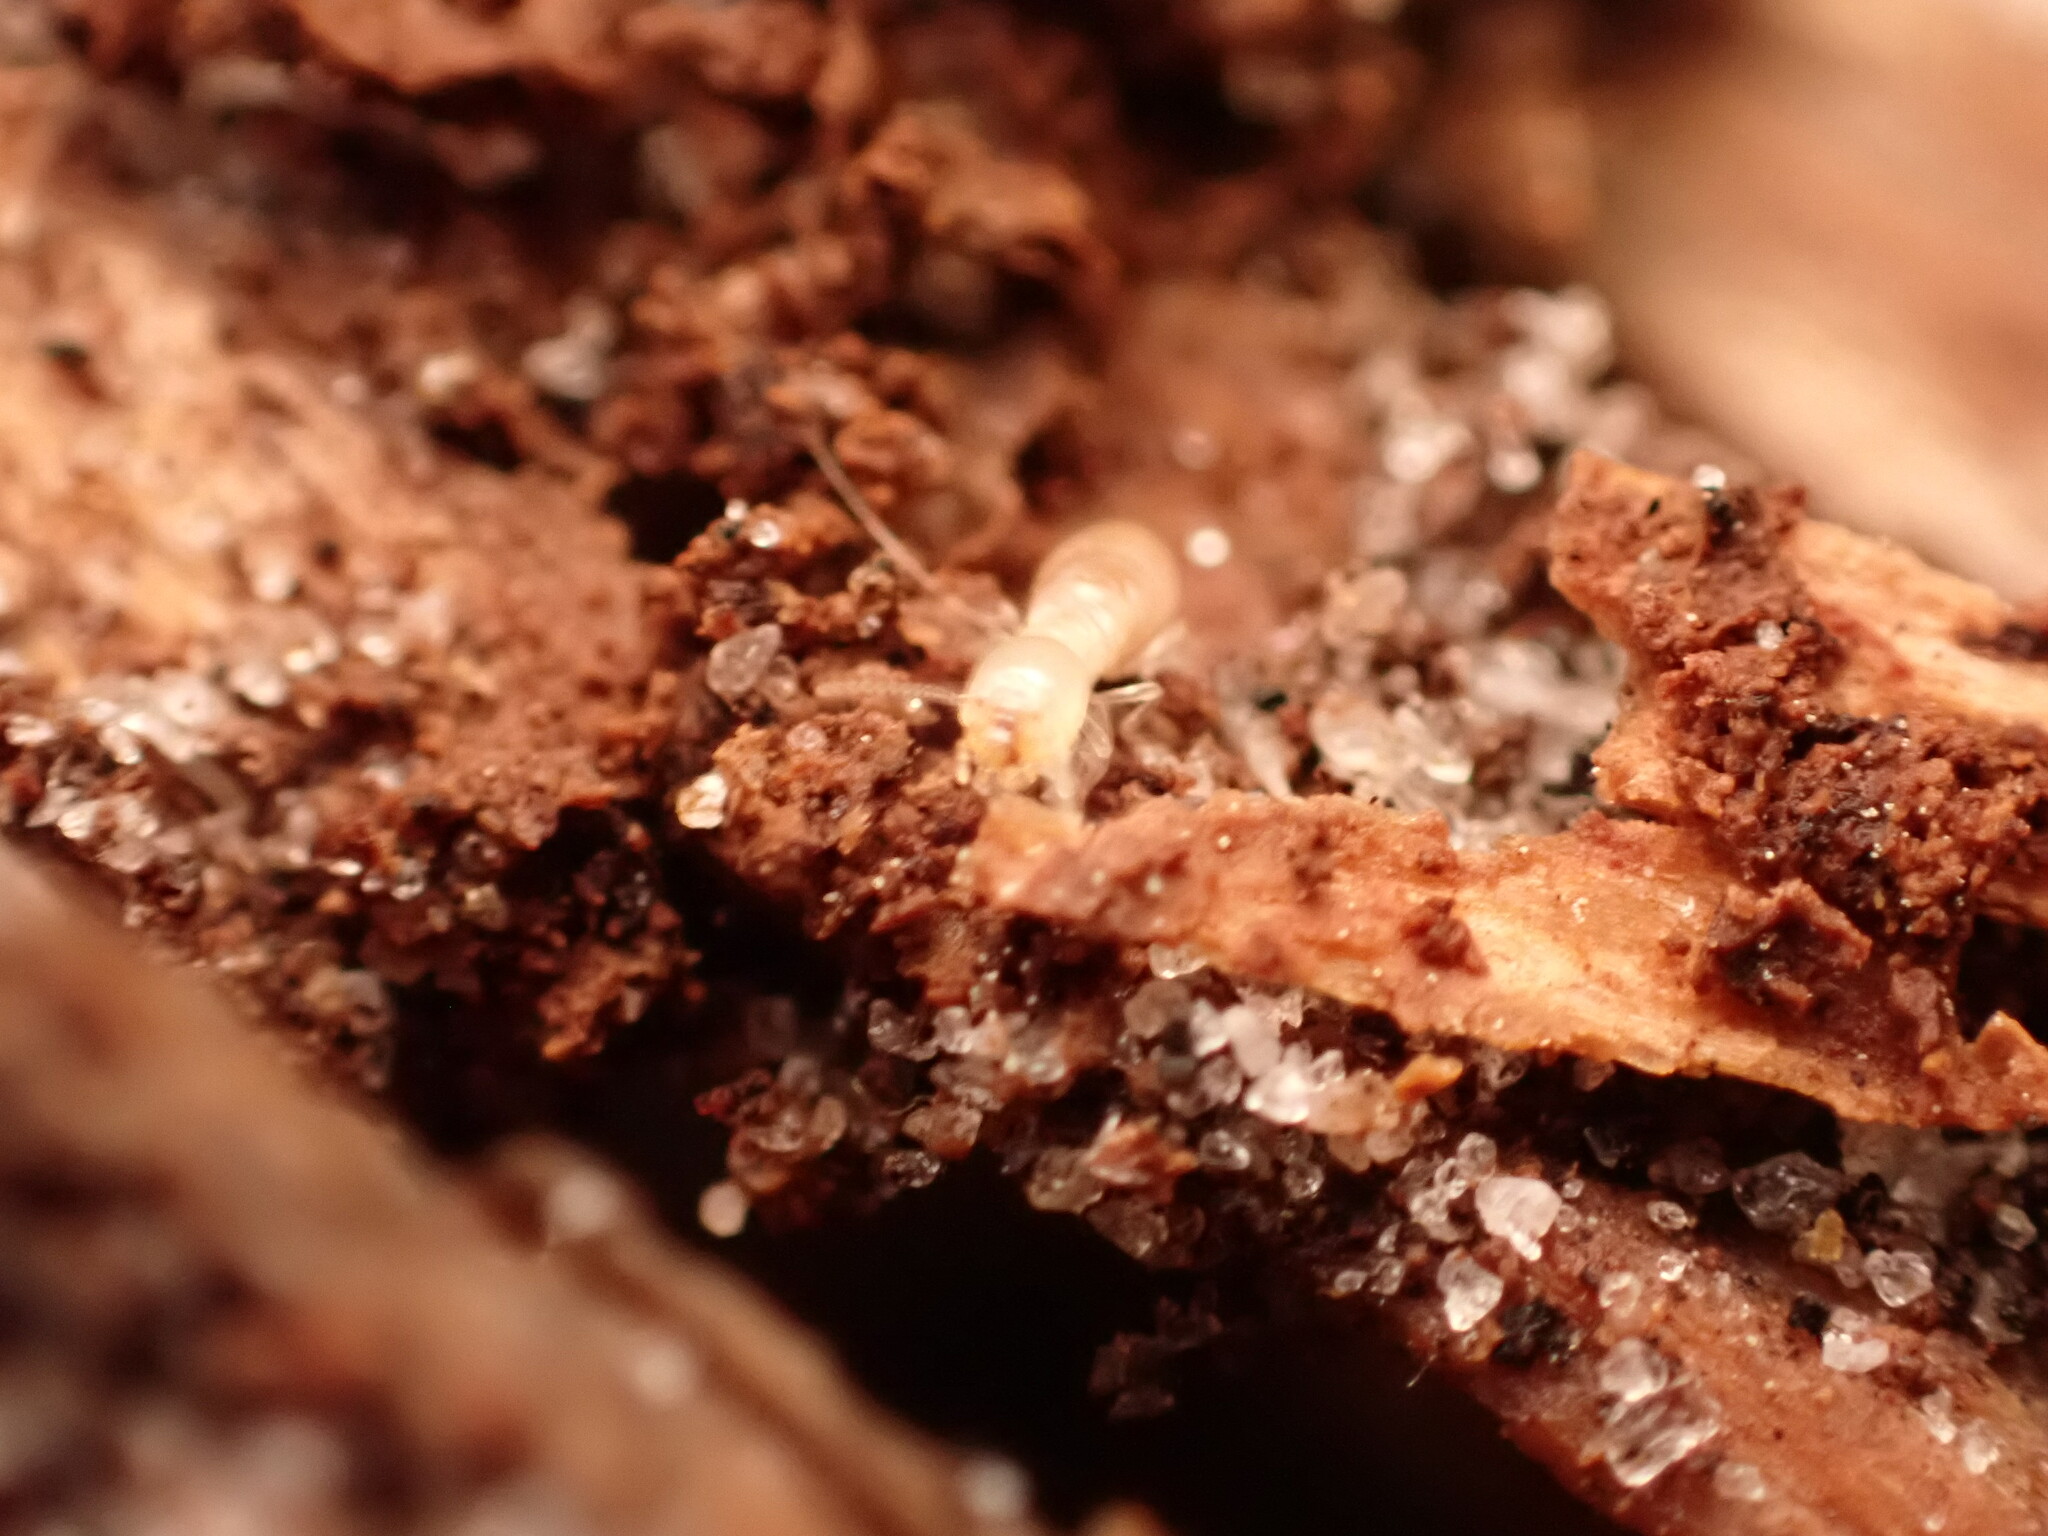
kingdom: Animalia
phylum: Arthropoda
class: Insecta
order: Blattodea
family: Rhinotermitidae
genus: Reticulitermes
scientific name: Reticulitermes flavipes
